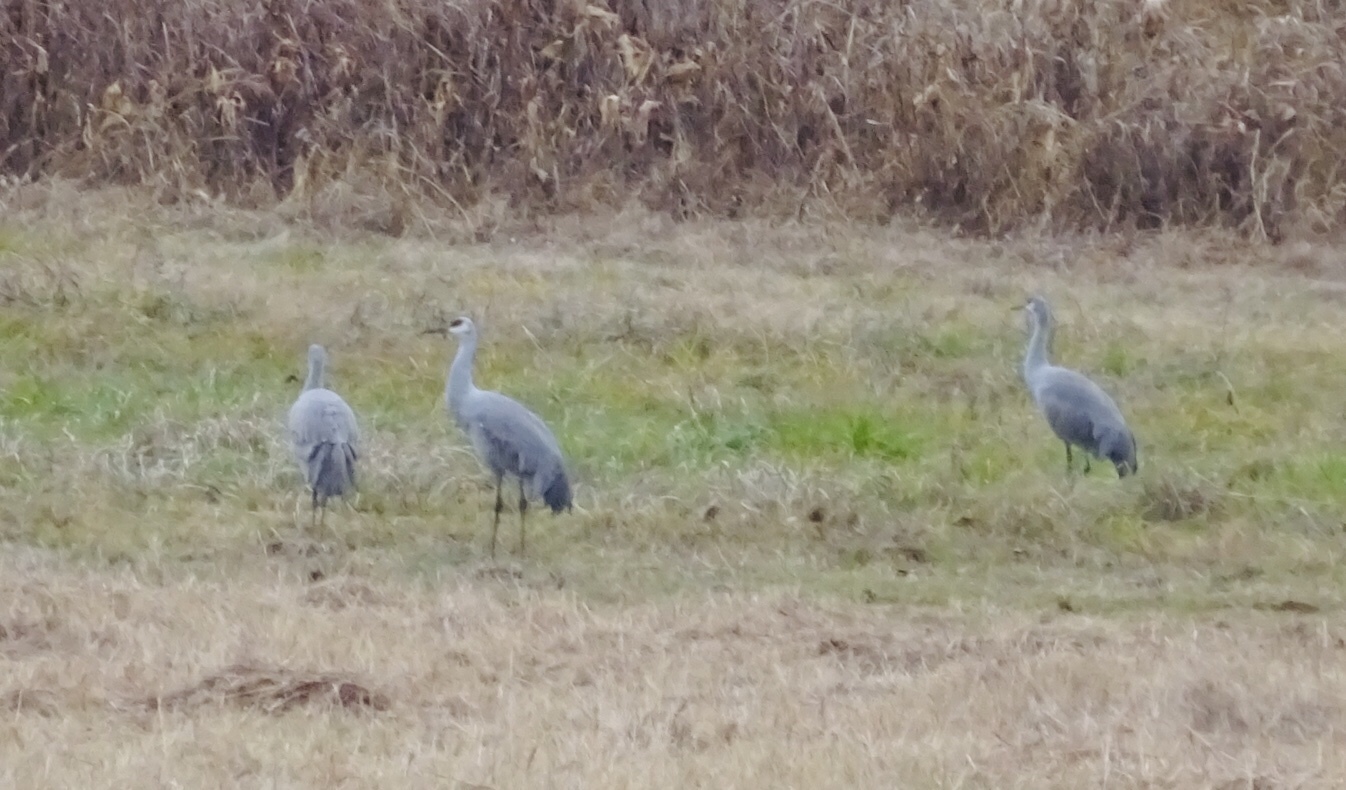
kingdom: Animalia
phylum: Chordata
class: Aves
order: Gruiformes
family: Gruidae
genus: Grus
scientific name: Grus canadensis
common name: Sandhill crane
